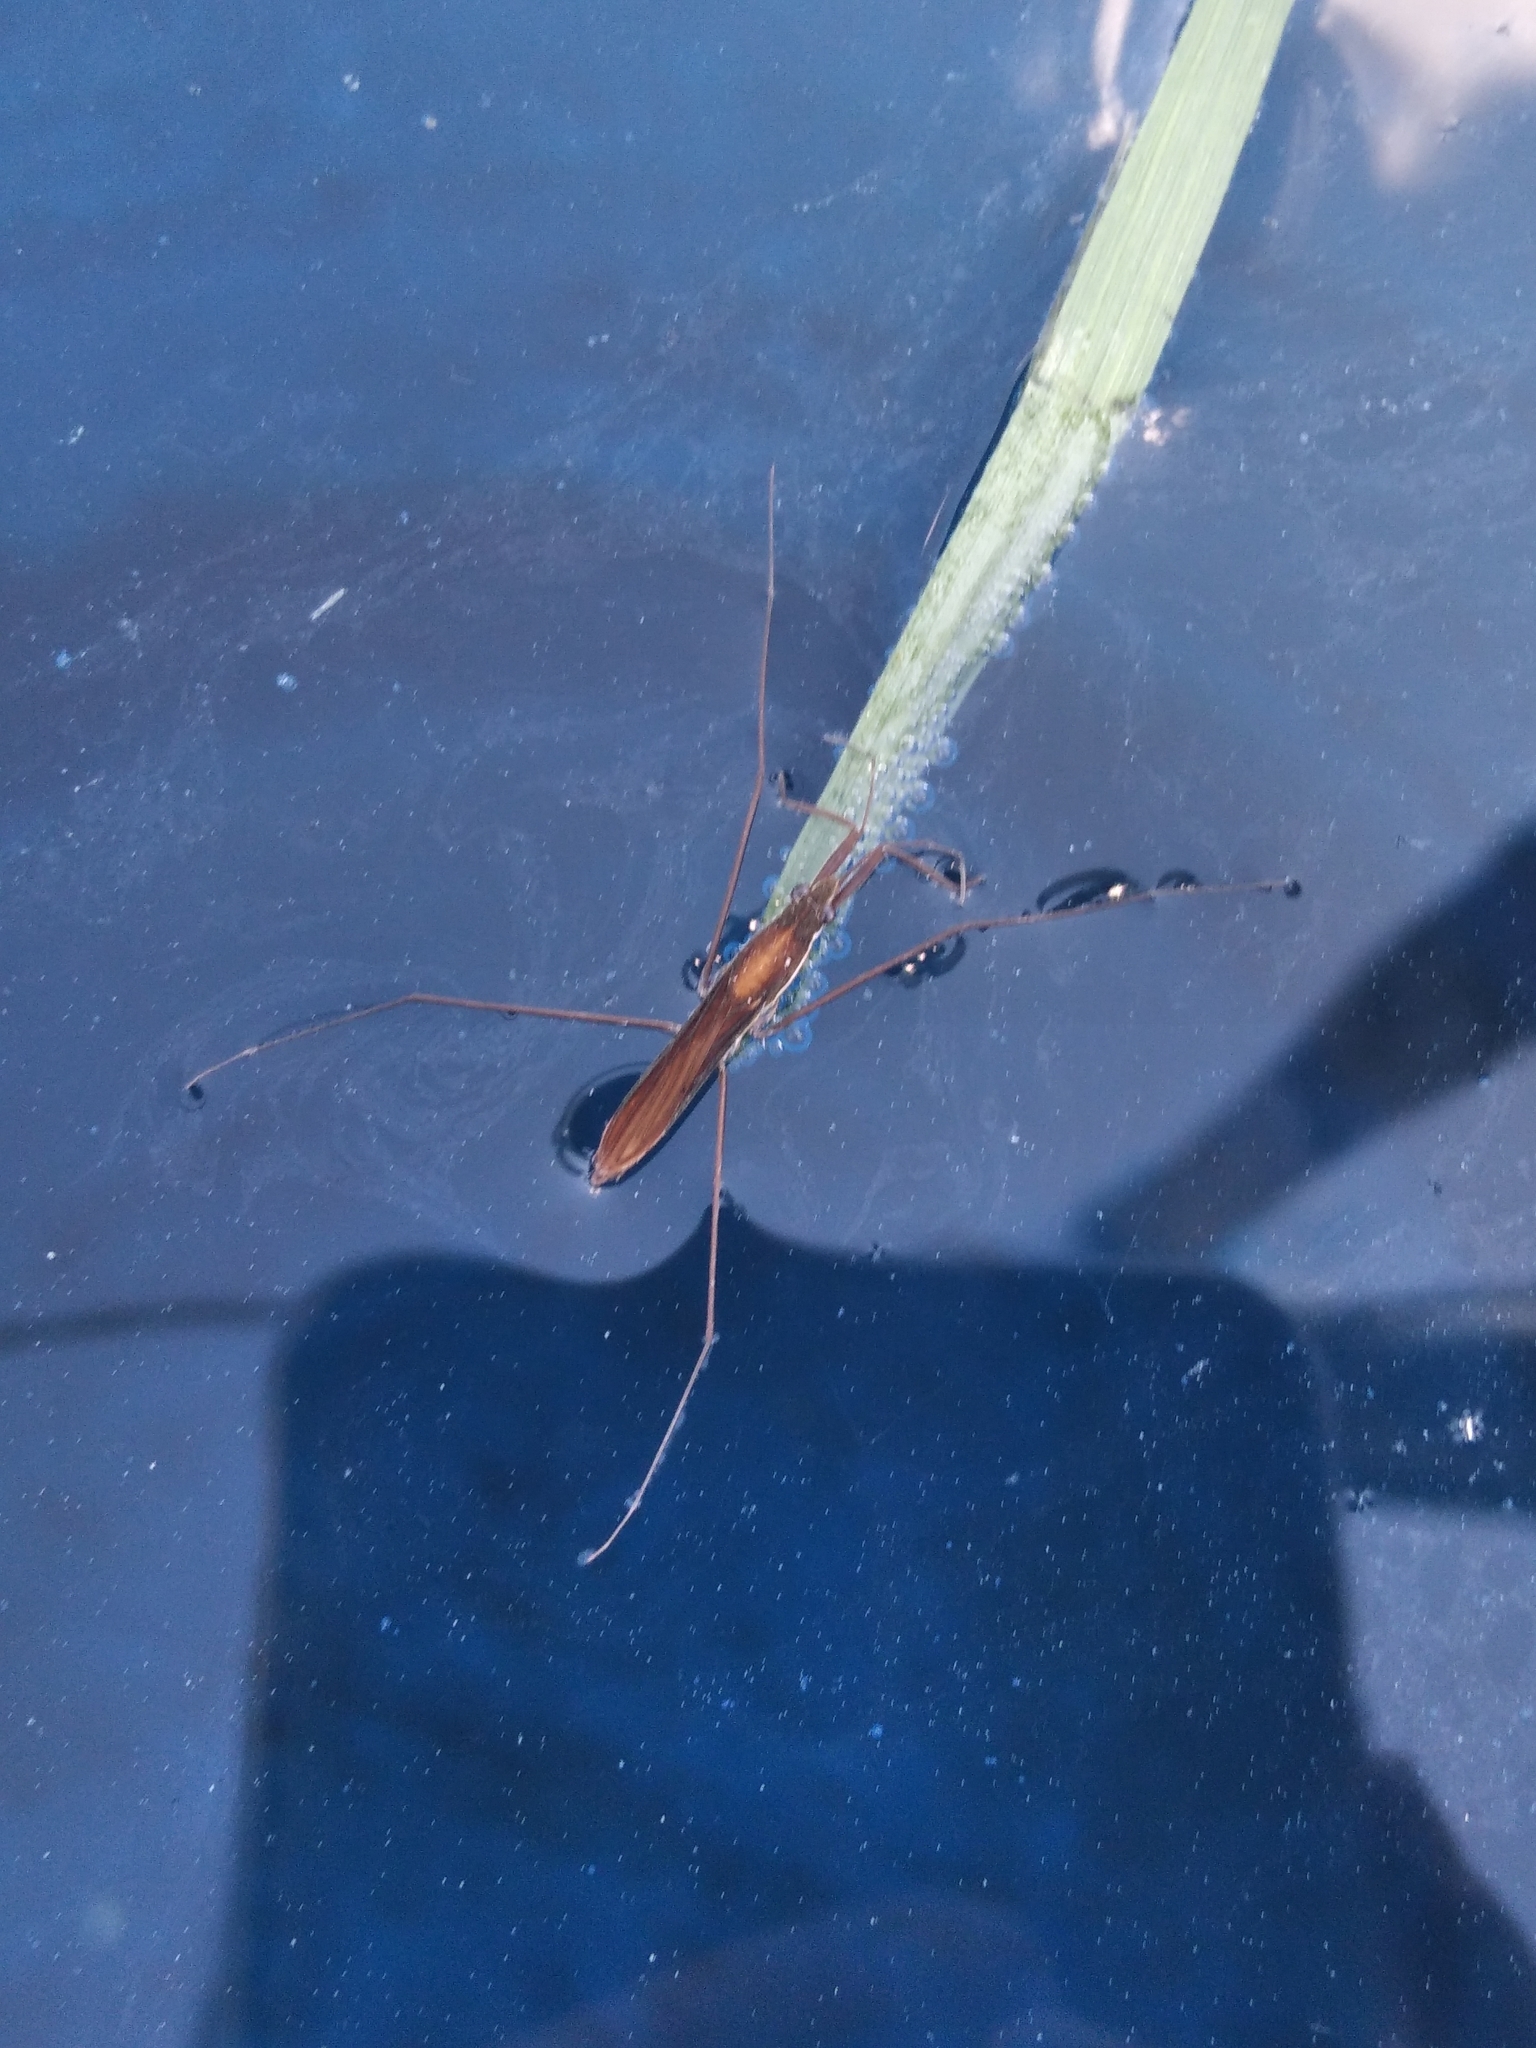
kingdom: Animalia
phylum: Arthropoda
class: Insecta
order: Hemiptera
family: Gerridae
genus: Limnoporus
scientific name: Limnoporus rufoscutellatus
